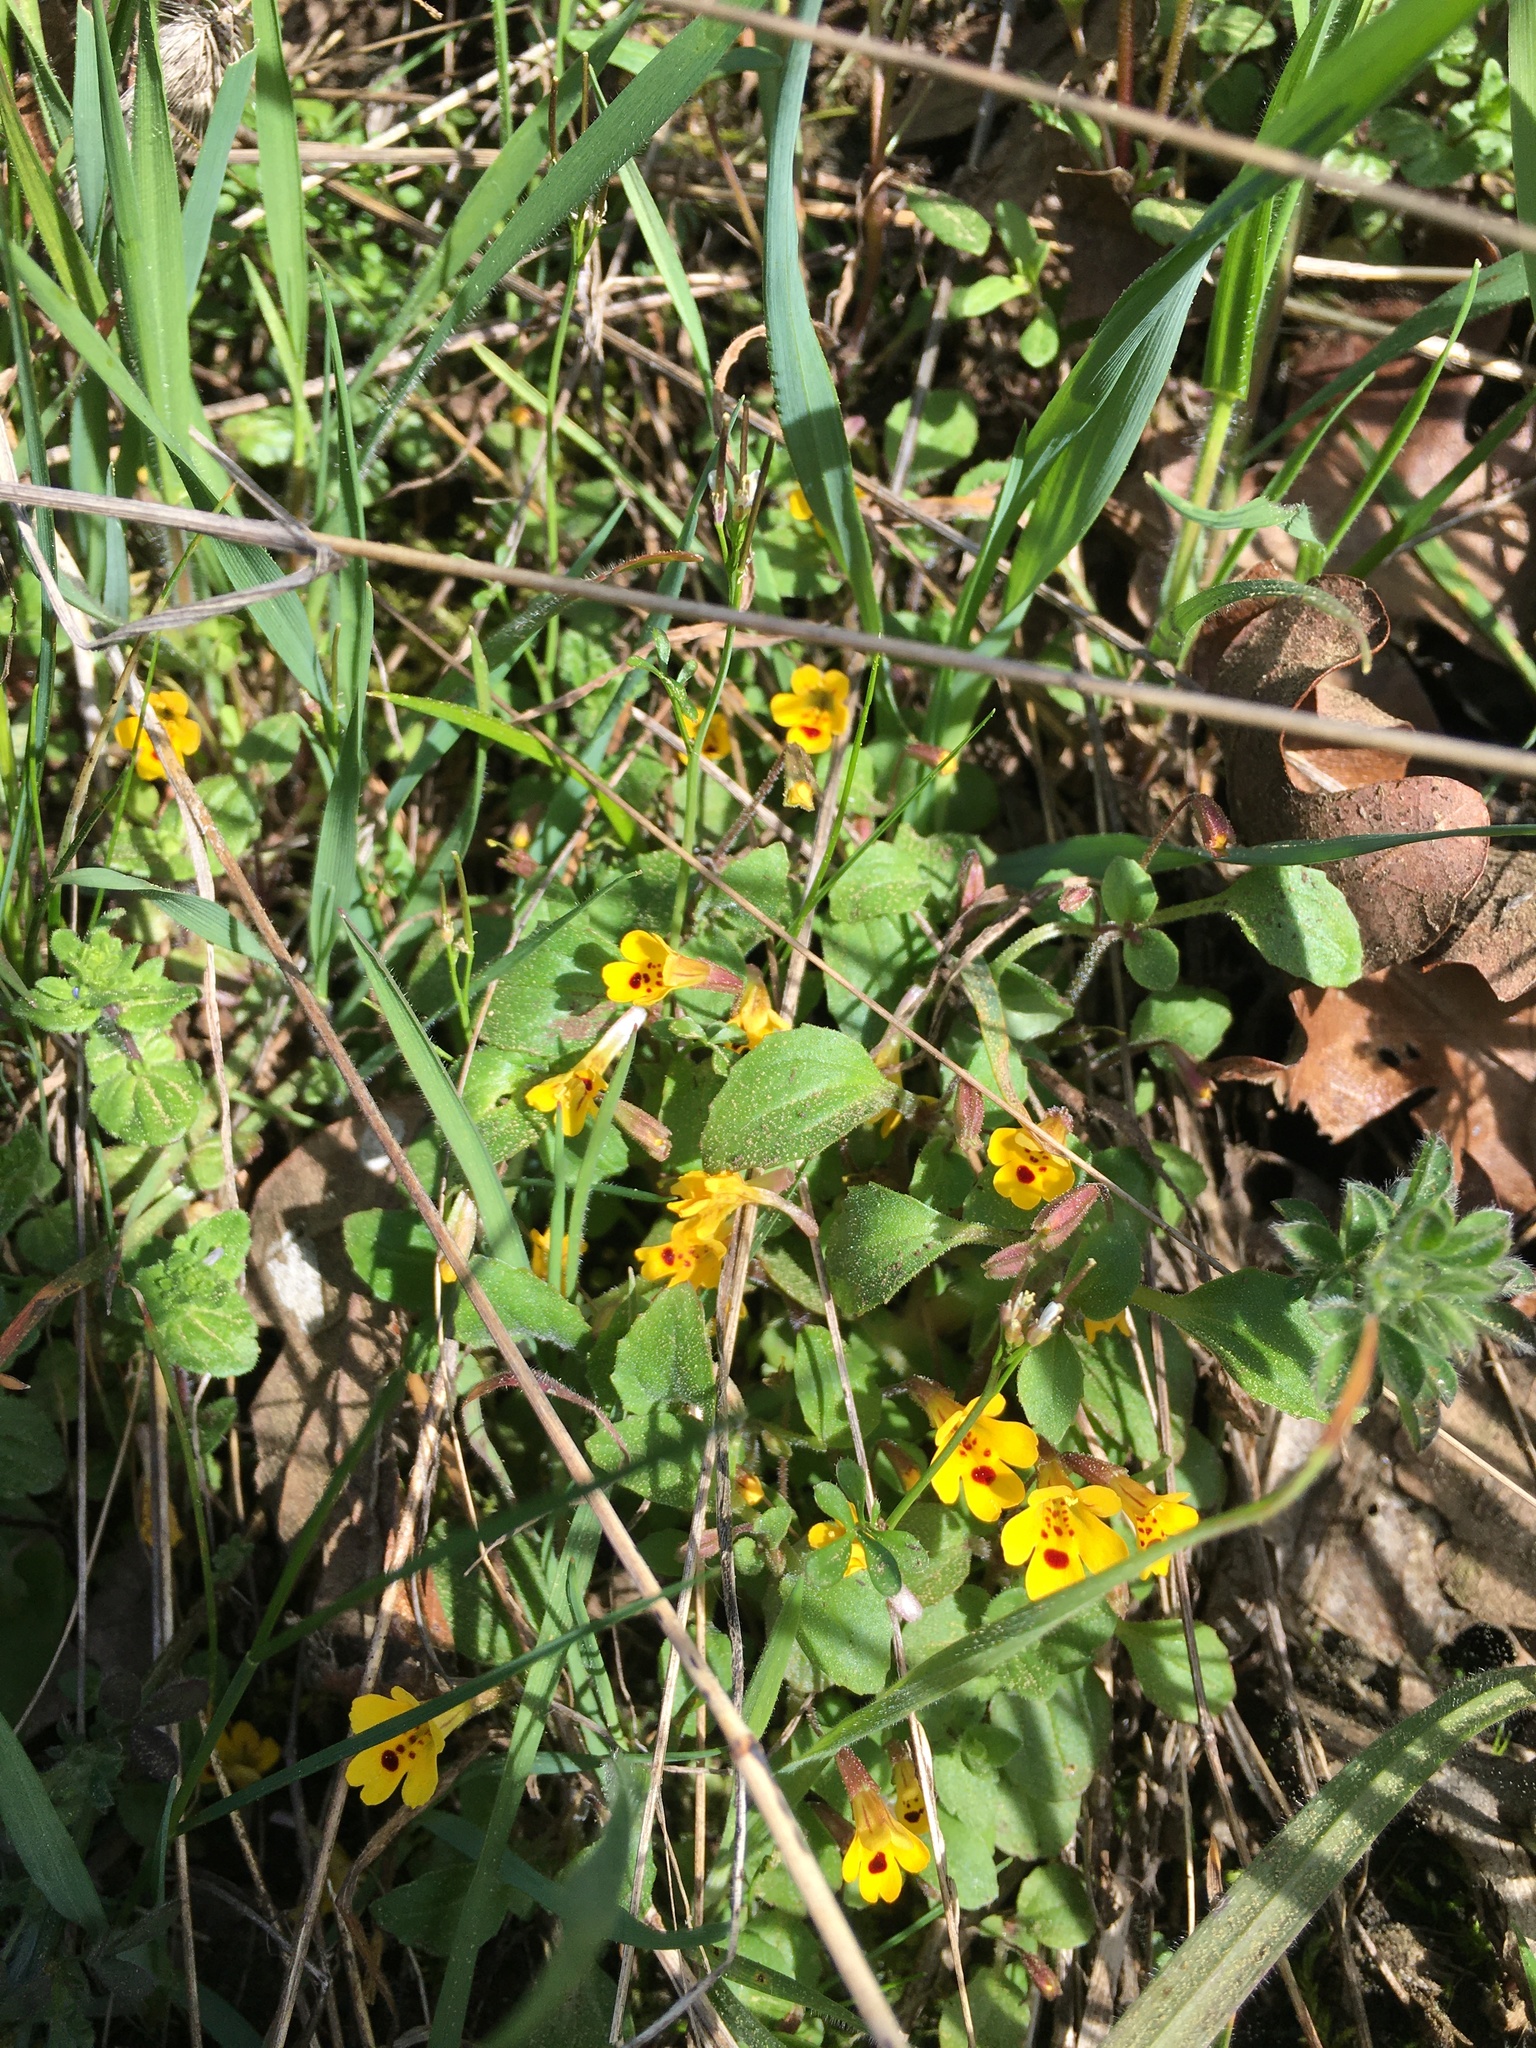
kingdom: Plantae
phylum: Tracheophyta
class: Magnoliopsida
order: Lamiales
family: Phrymaceae
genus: Erythranthe
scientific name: Erythranthe alsinoides
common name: Chickweed monkeyflower
